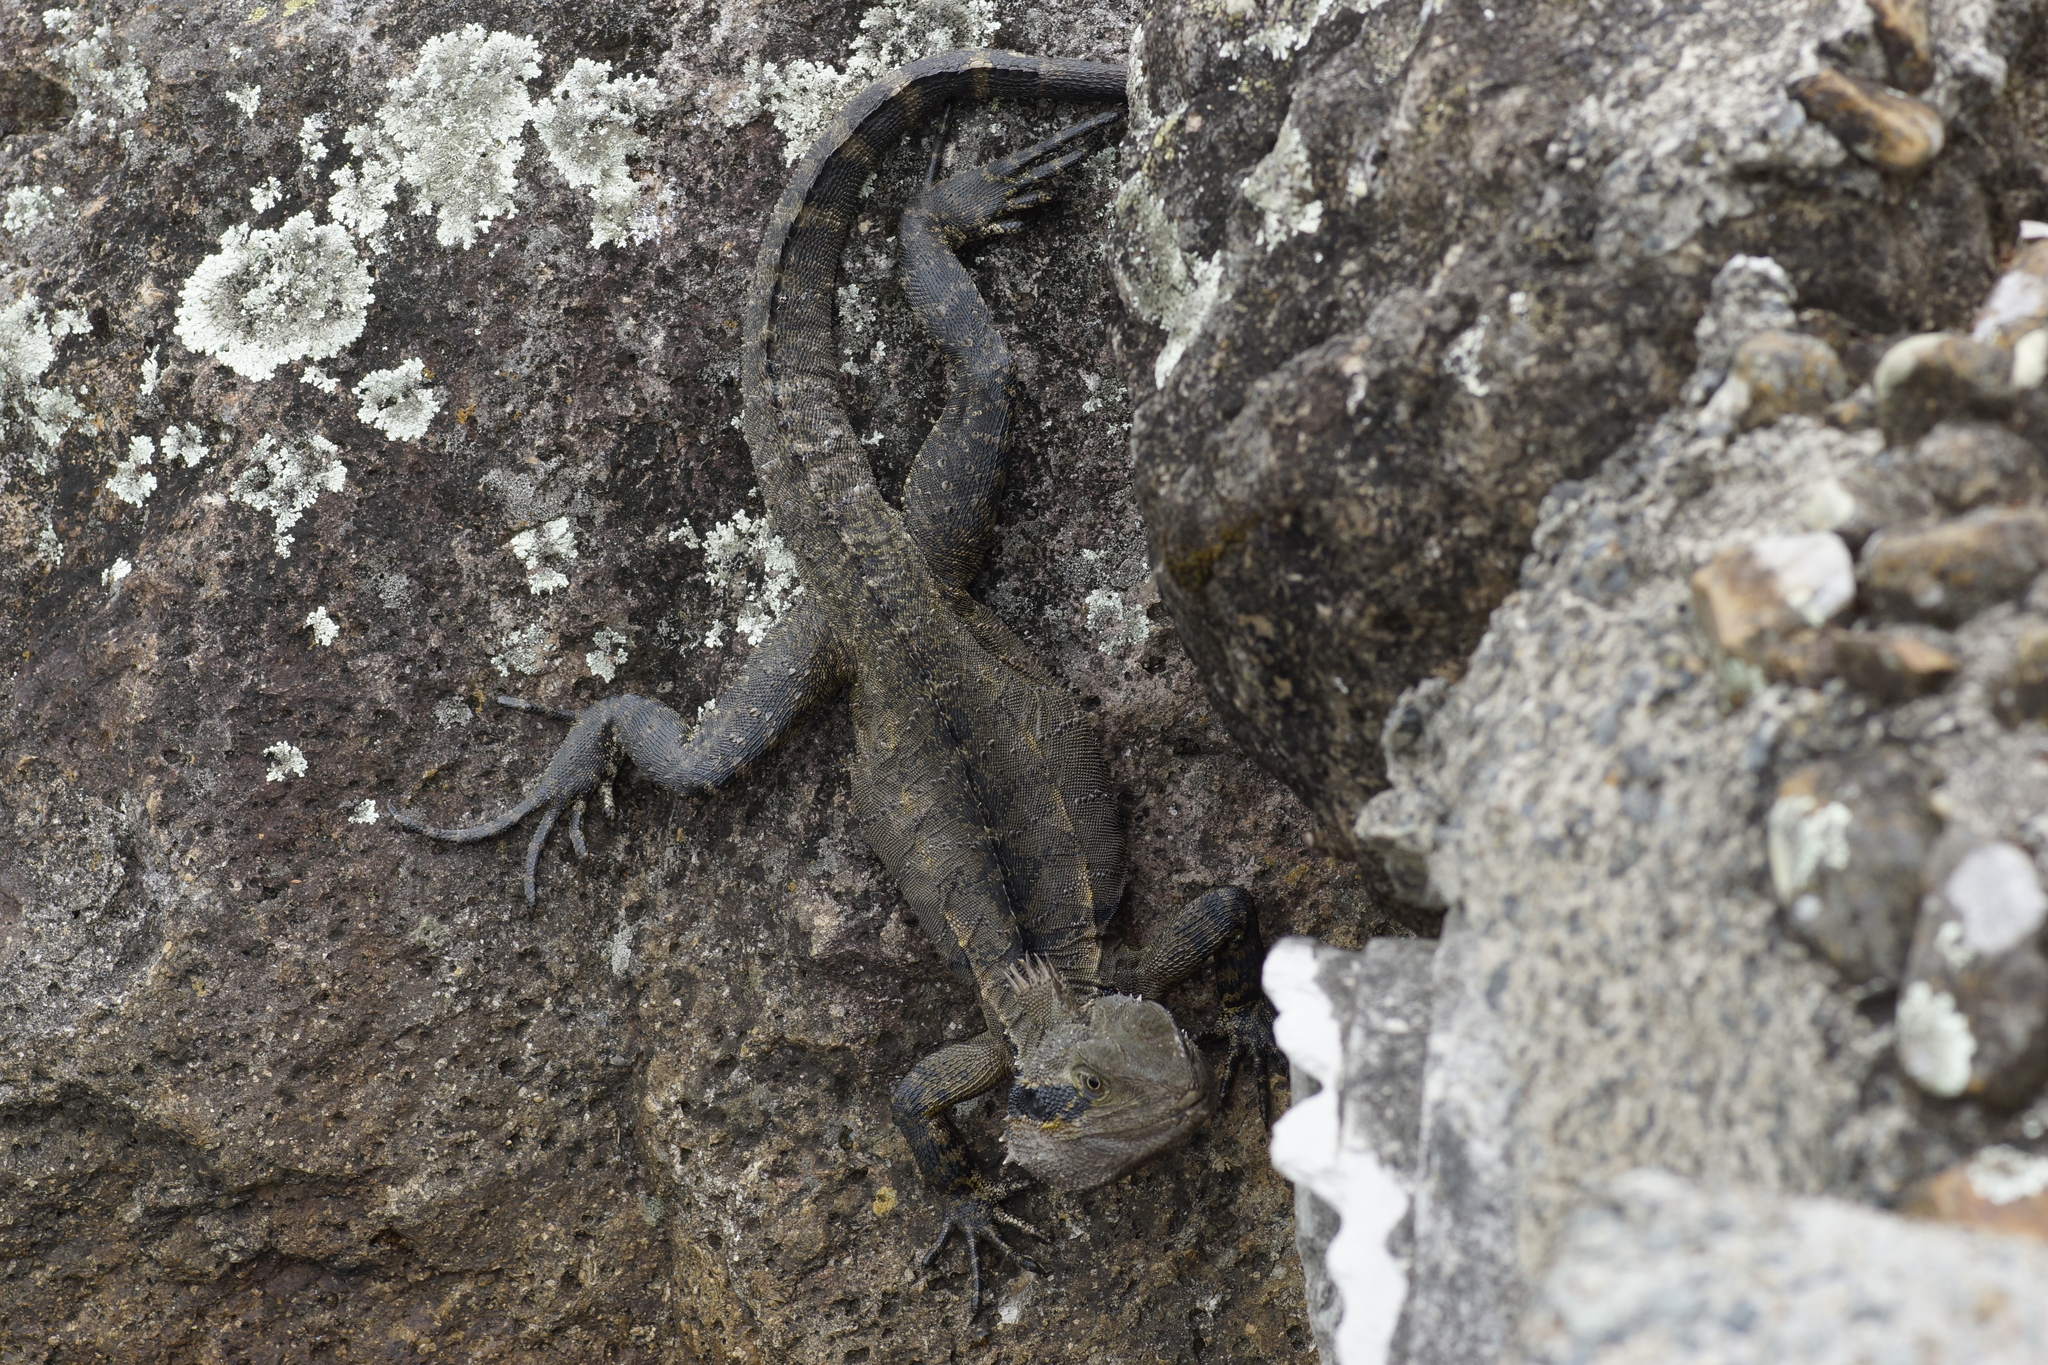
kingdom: Animalia
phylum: Chordata
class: Squamata
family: Agamidae
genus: Intellagama
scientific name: Intellagama lesueurii
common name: Eastern water dragon
